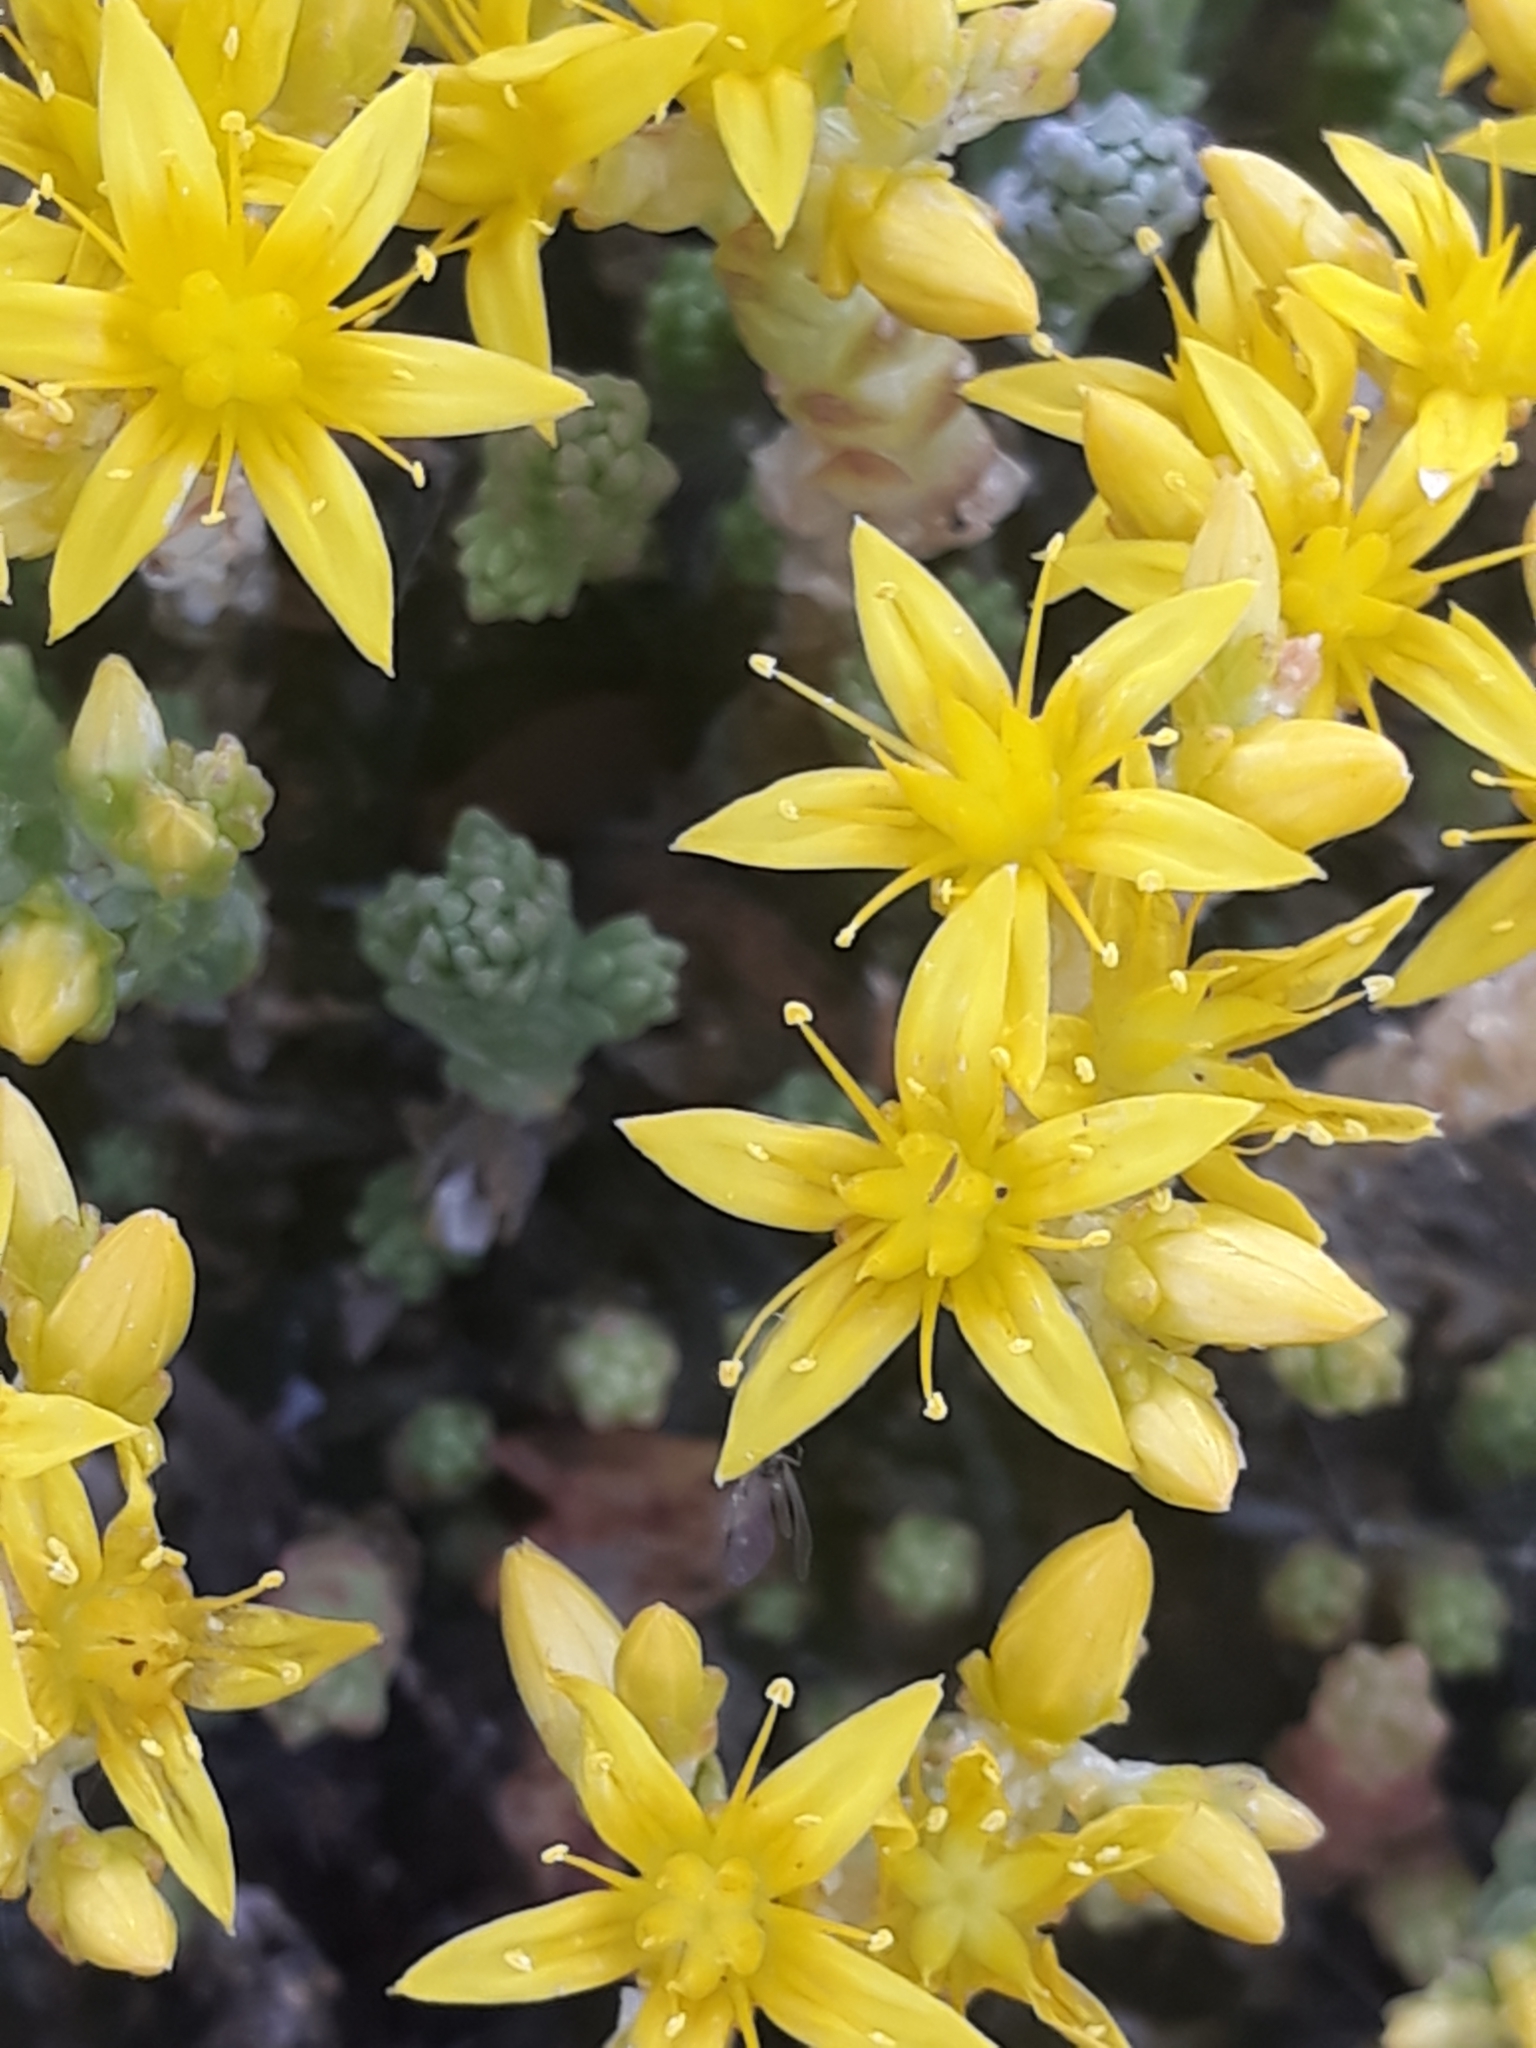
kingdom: Plantae
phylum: Tracheophyta
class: Magnoliopsida
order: Saxifragales
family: Crassulaceae
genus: Sedum
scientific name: Sedum acre
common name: Biting stonecrop
